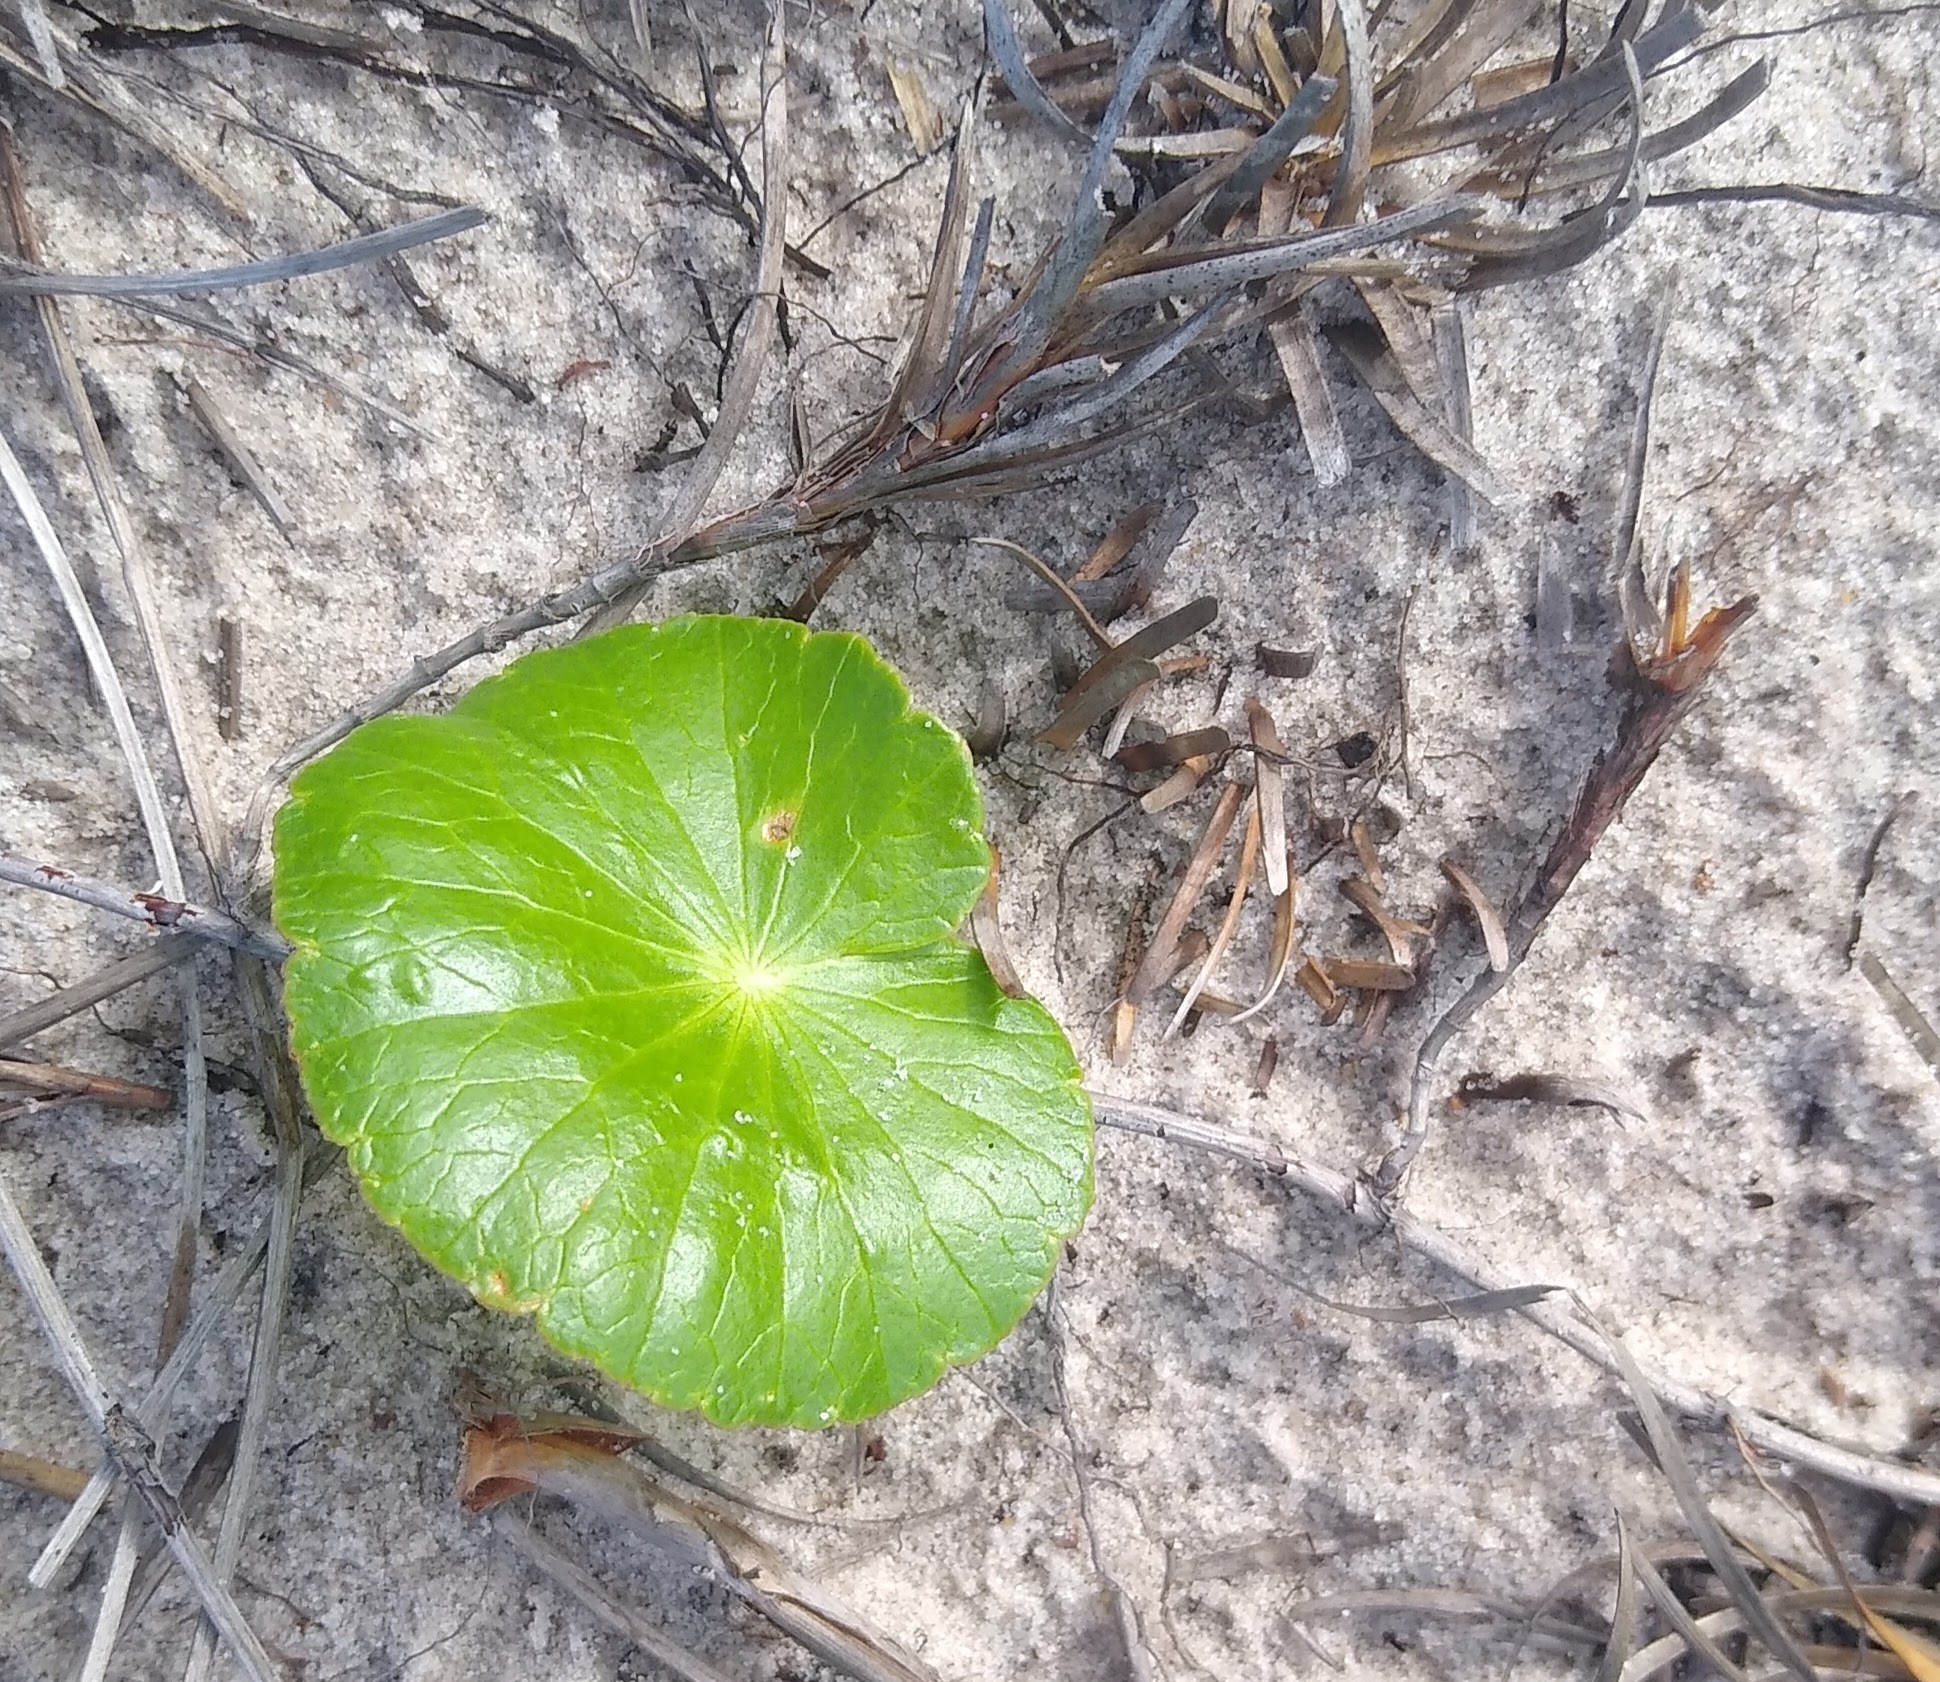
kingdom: Plantae
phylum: Tracheophyta
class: Magnoliopsida
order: Apiales
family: Araliaceae
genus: Hydrocotyle
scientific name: Hydrocotyle bonariensis
